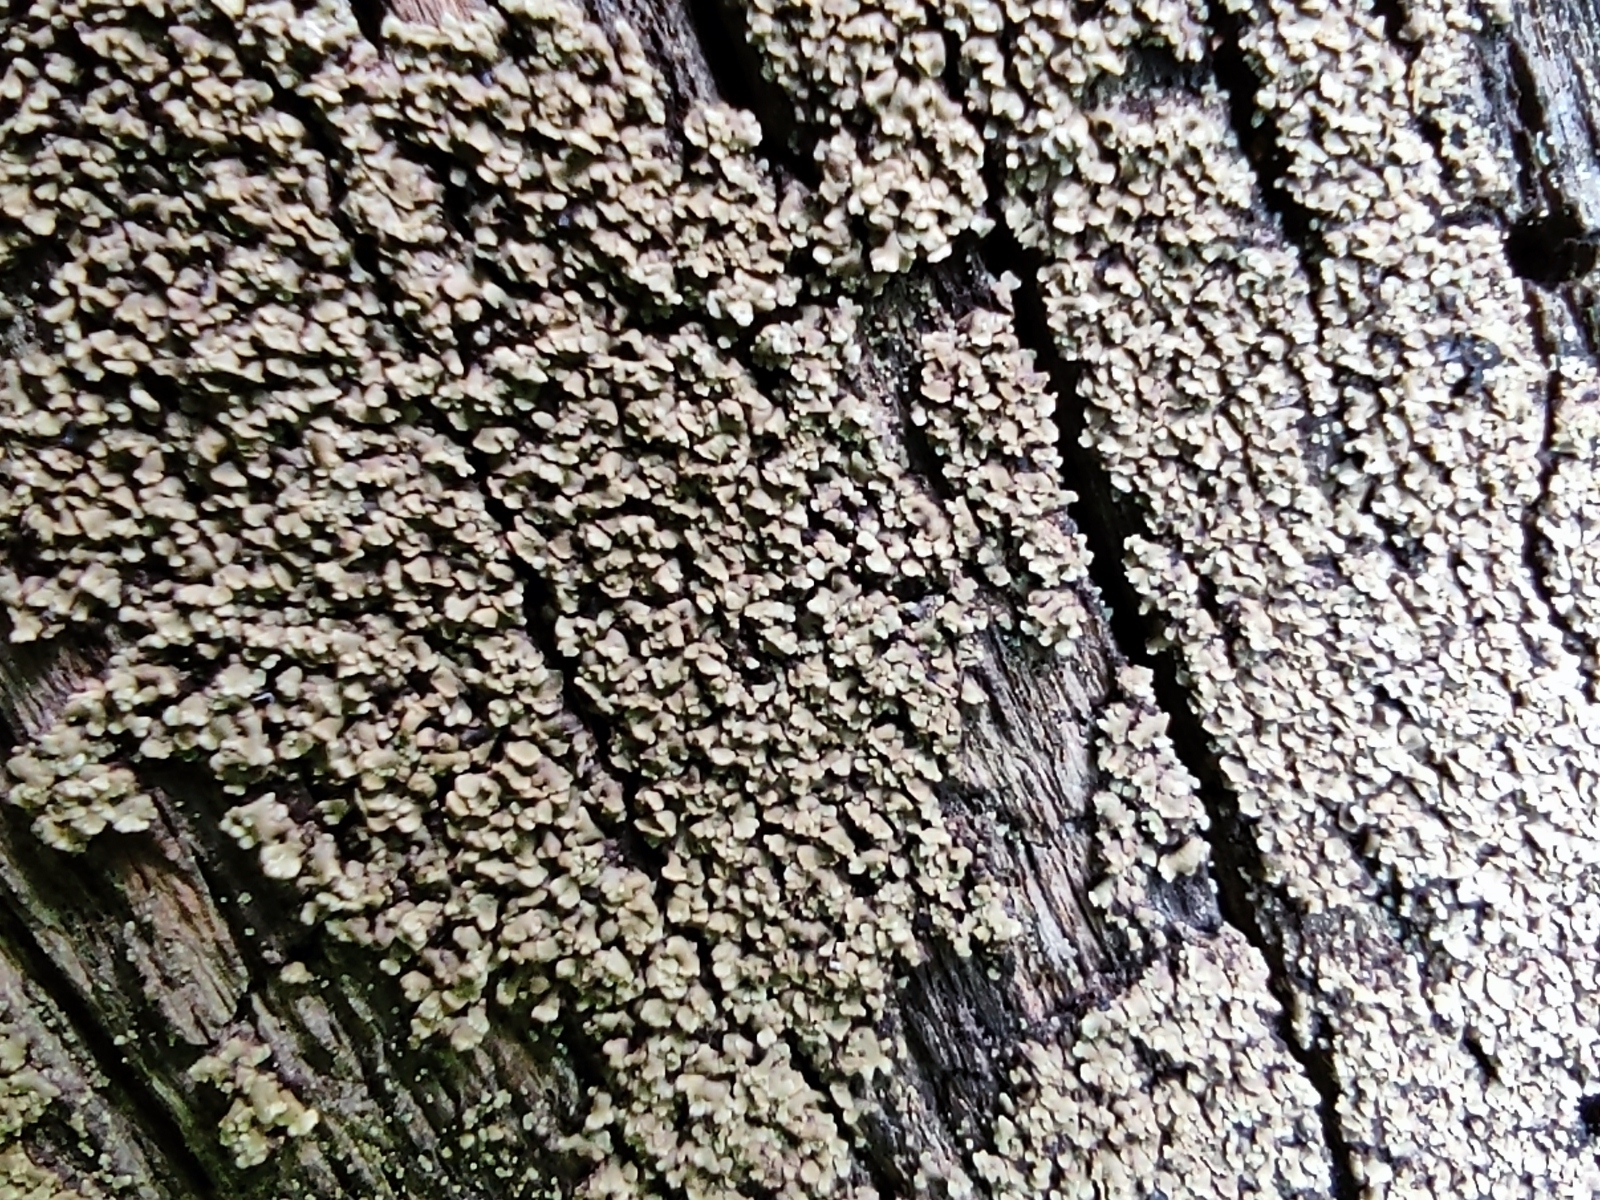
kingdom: Fungi
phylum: Ascomycota
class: Lecanoromycetes
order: Umbilicariales
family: Ophioparmaceae
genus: Hypocenomyce
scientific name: Hypocenomyce scalaris
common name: Common clam lichen
